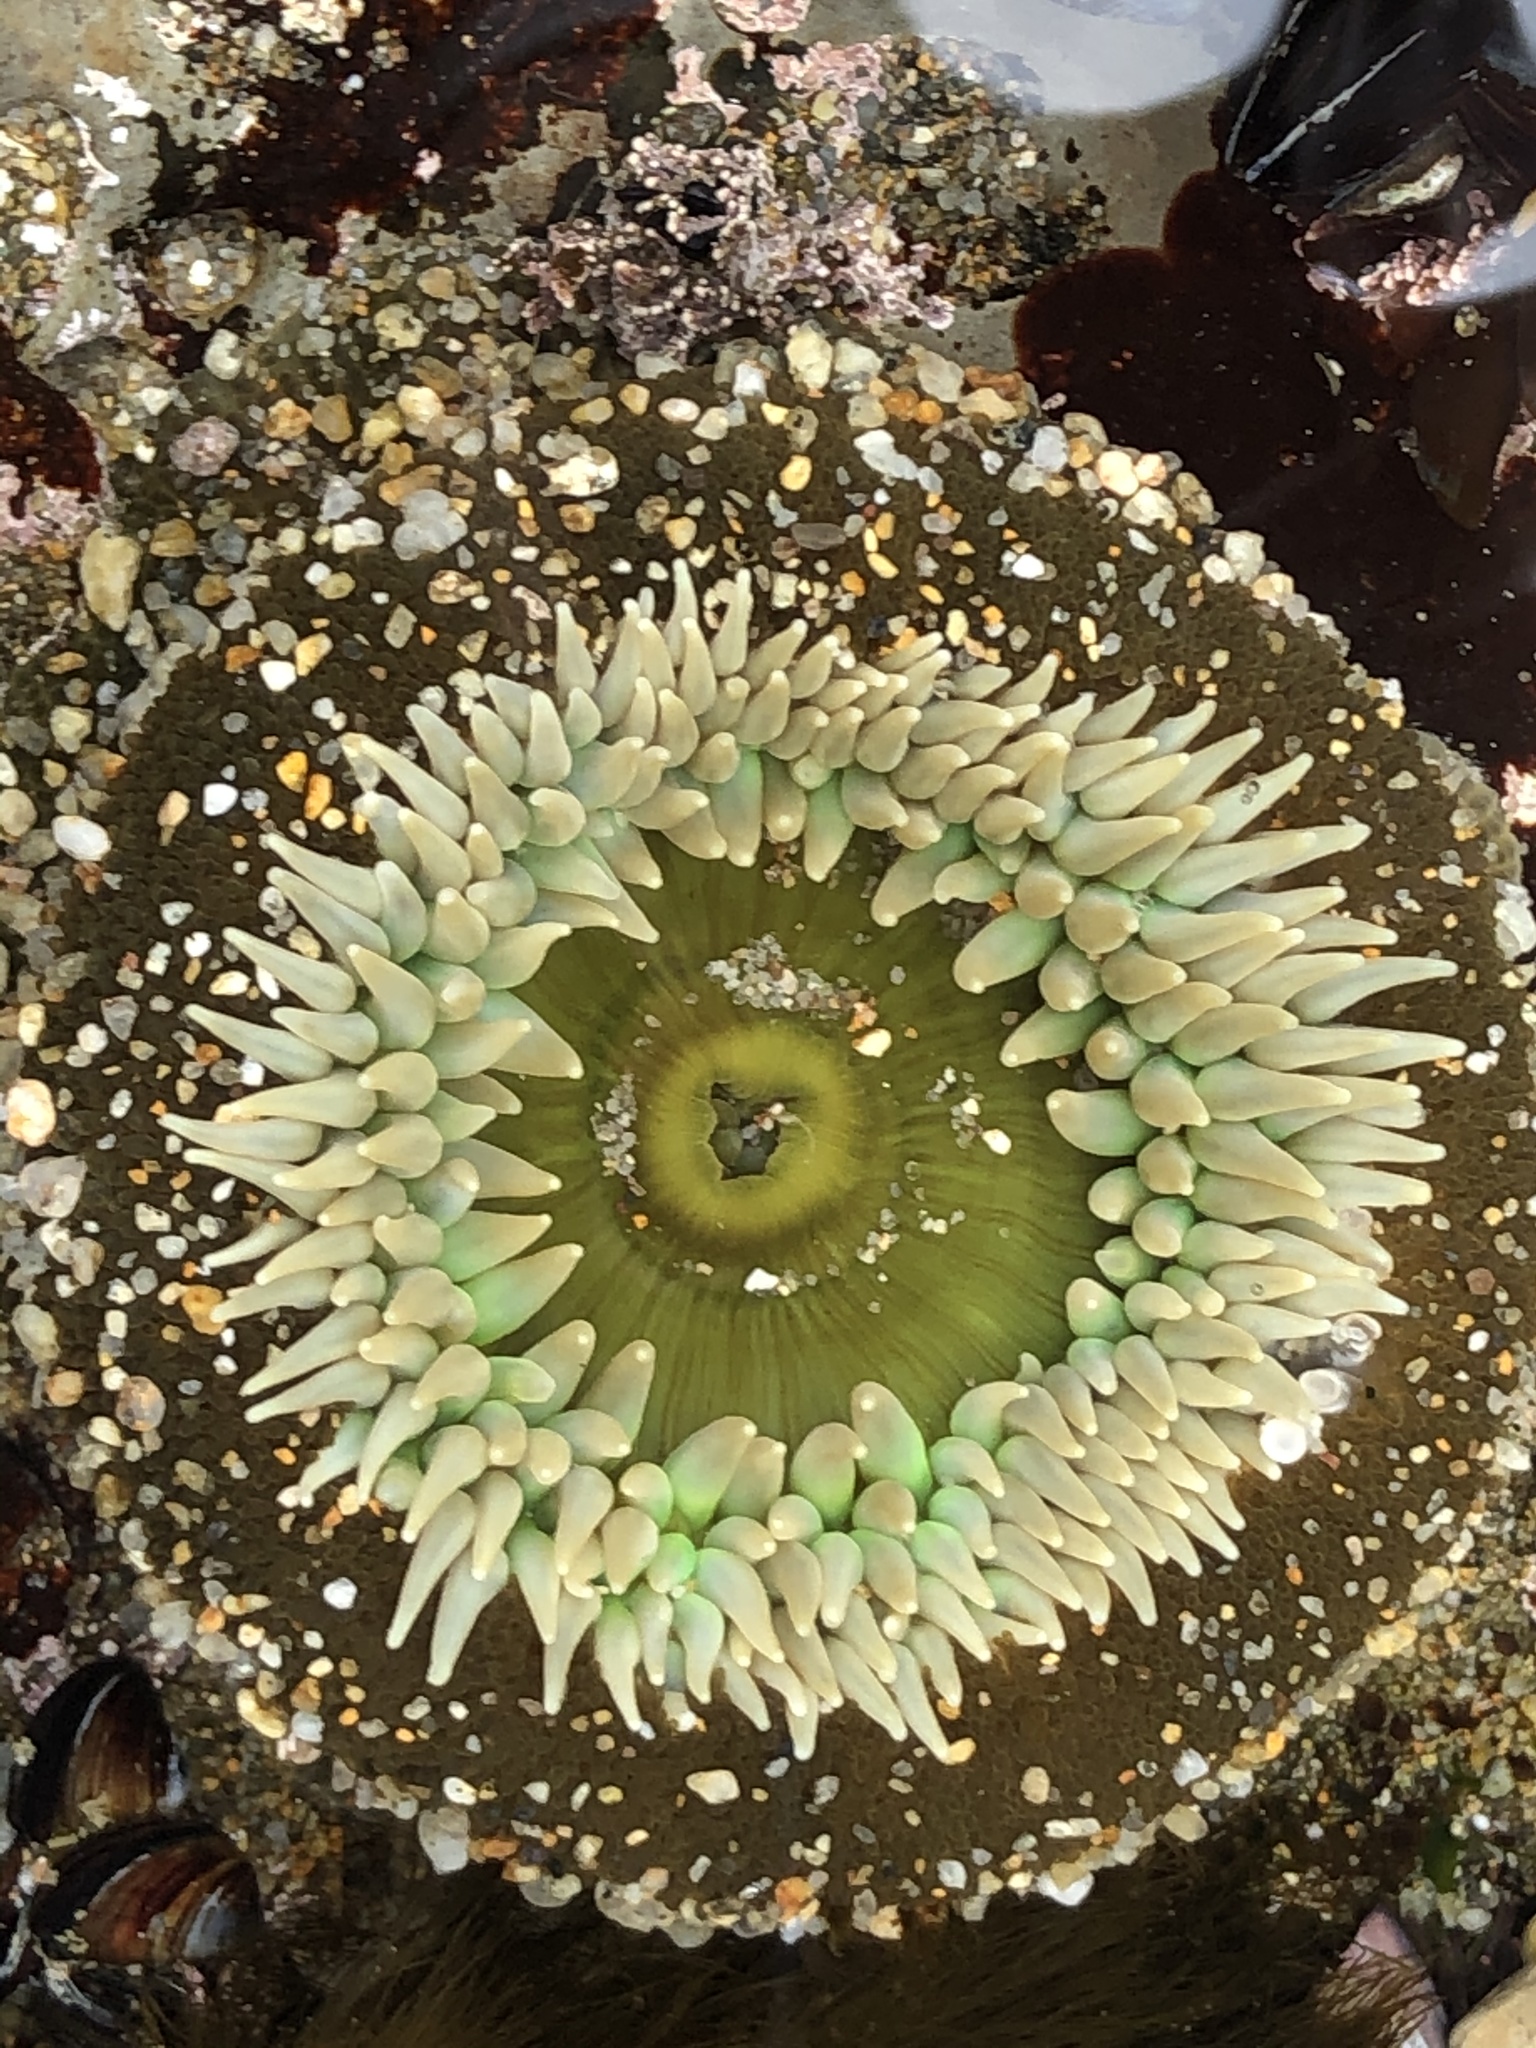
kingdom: Animalia
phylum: Cnidaria
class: Anthozoa
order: Actiniaria
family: Actiniidae
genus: Anthopleura
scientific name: Anthopleura xanthogrammica
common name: Giant green anemone
